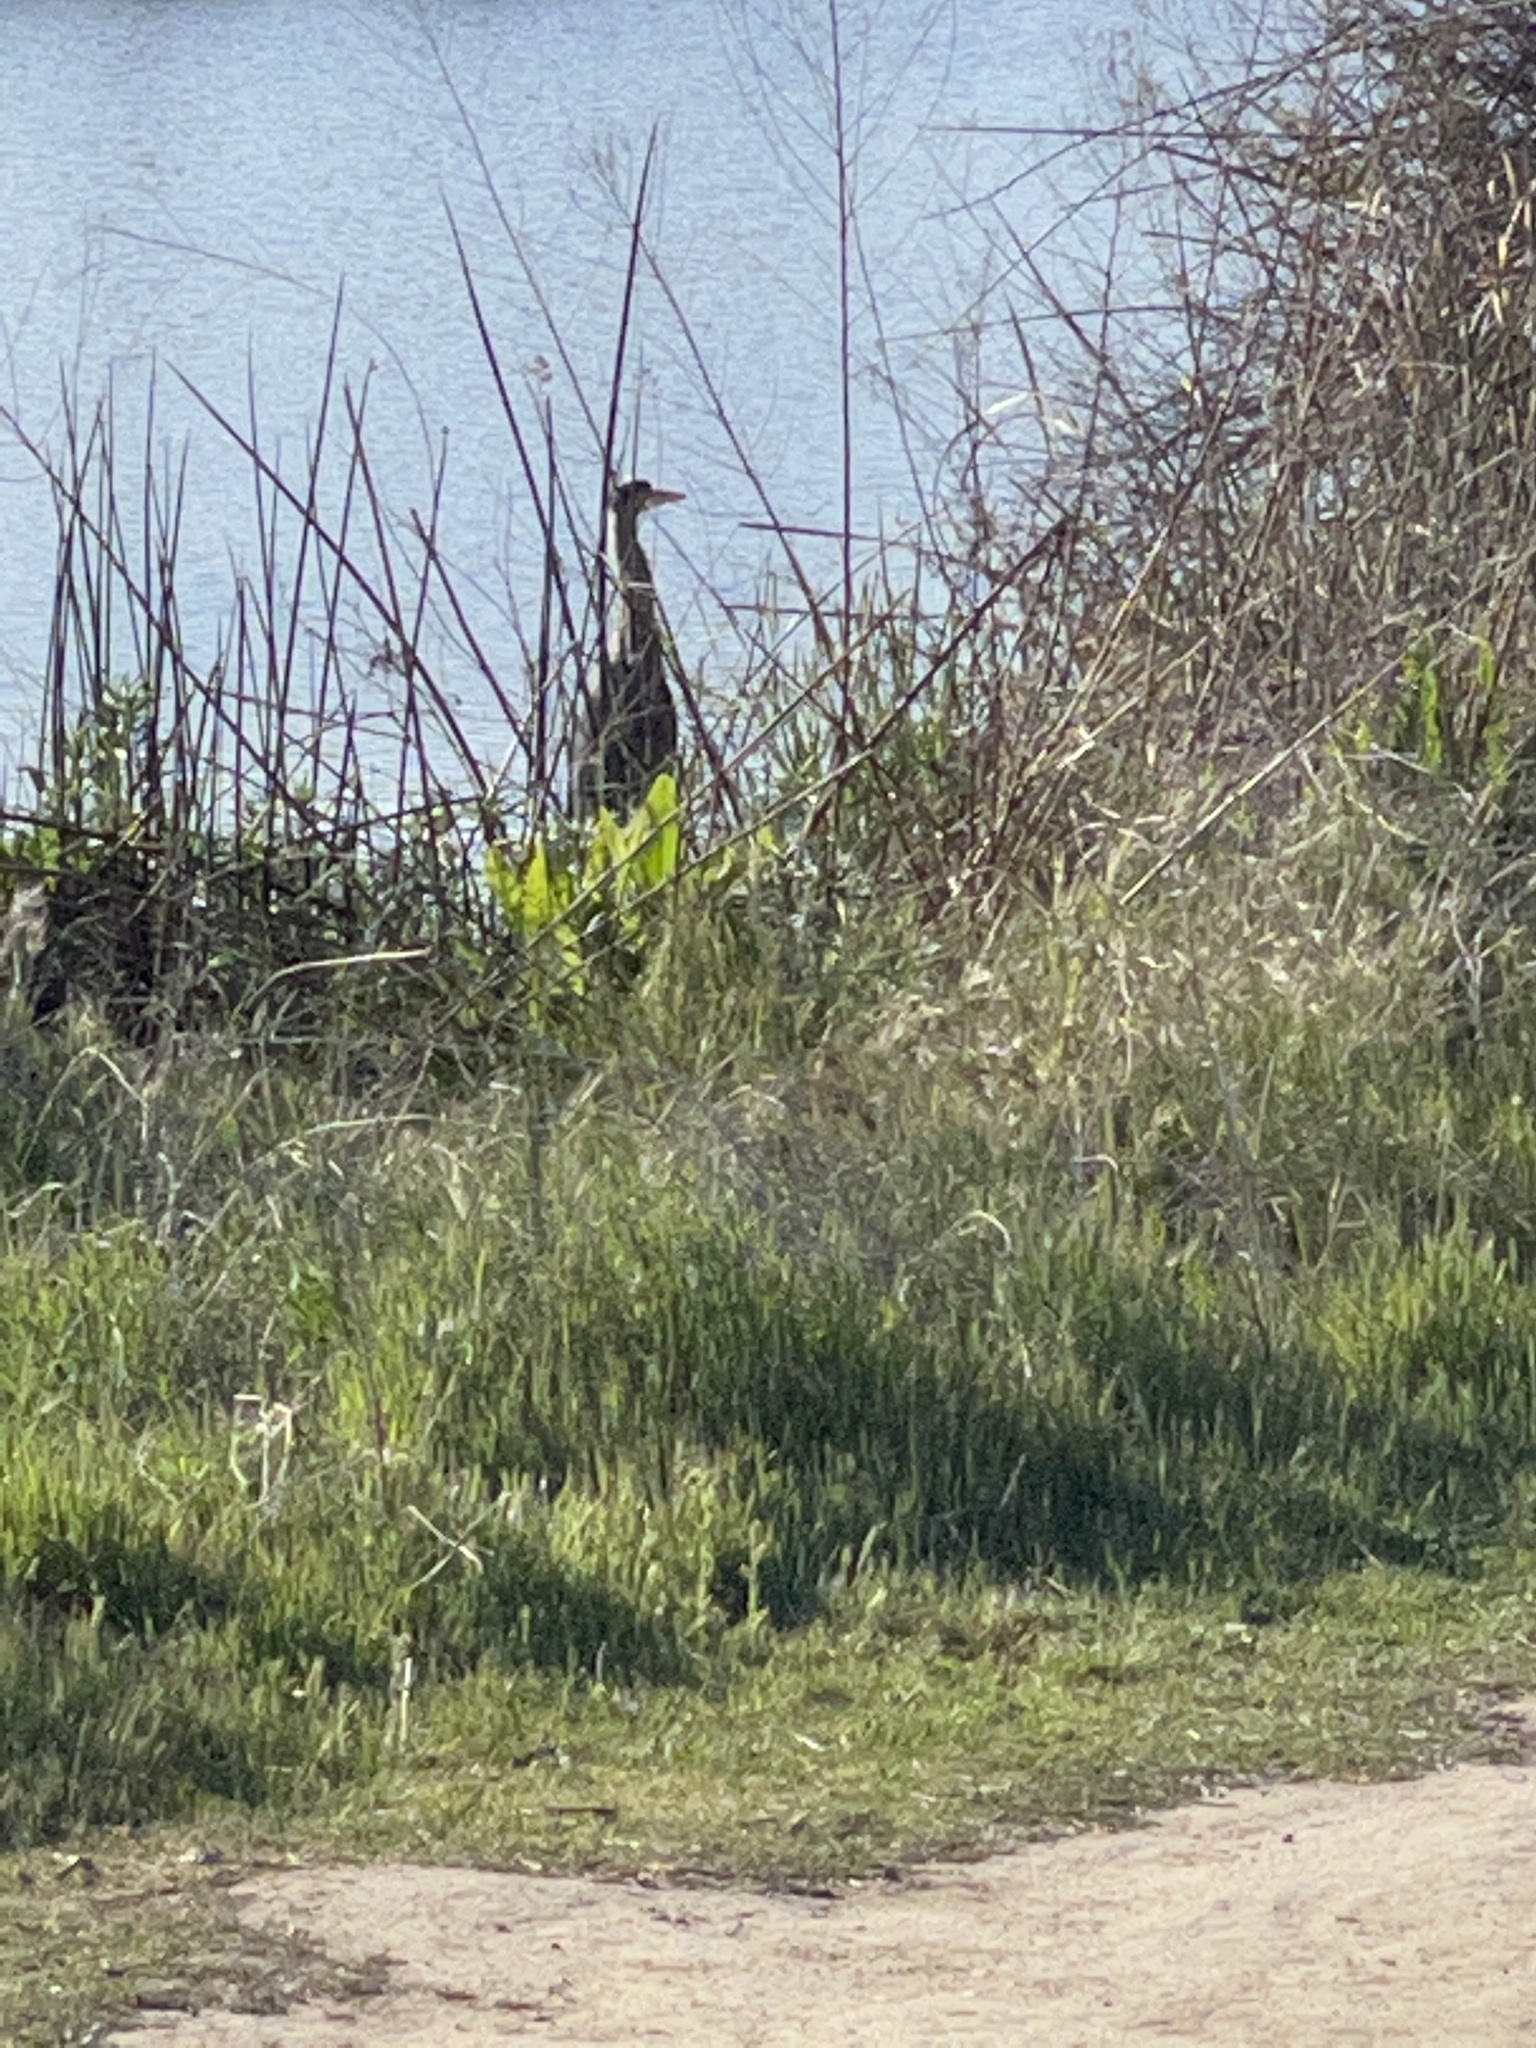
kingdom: Animalia
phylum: Chordata
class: Aves
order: Pelecaniformes
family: Ardeidae
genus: Ardea
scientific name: Ardea herodias
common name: Great blue heron
